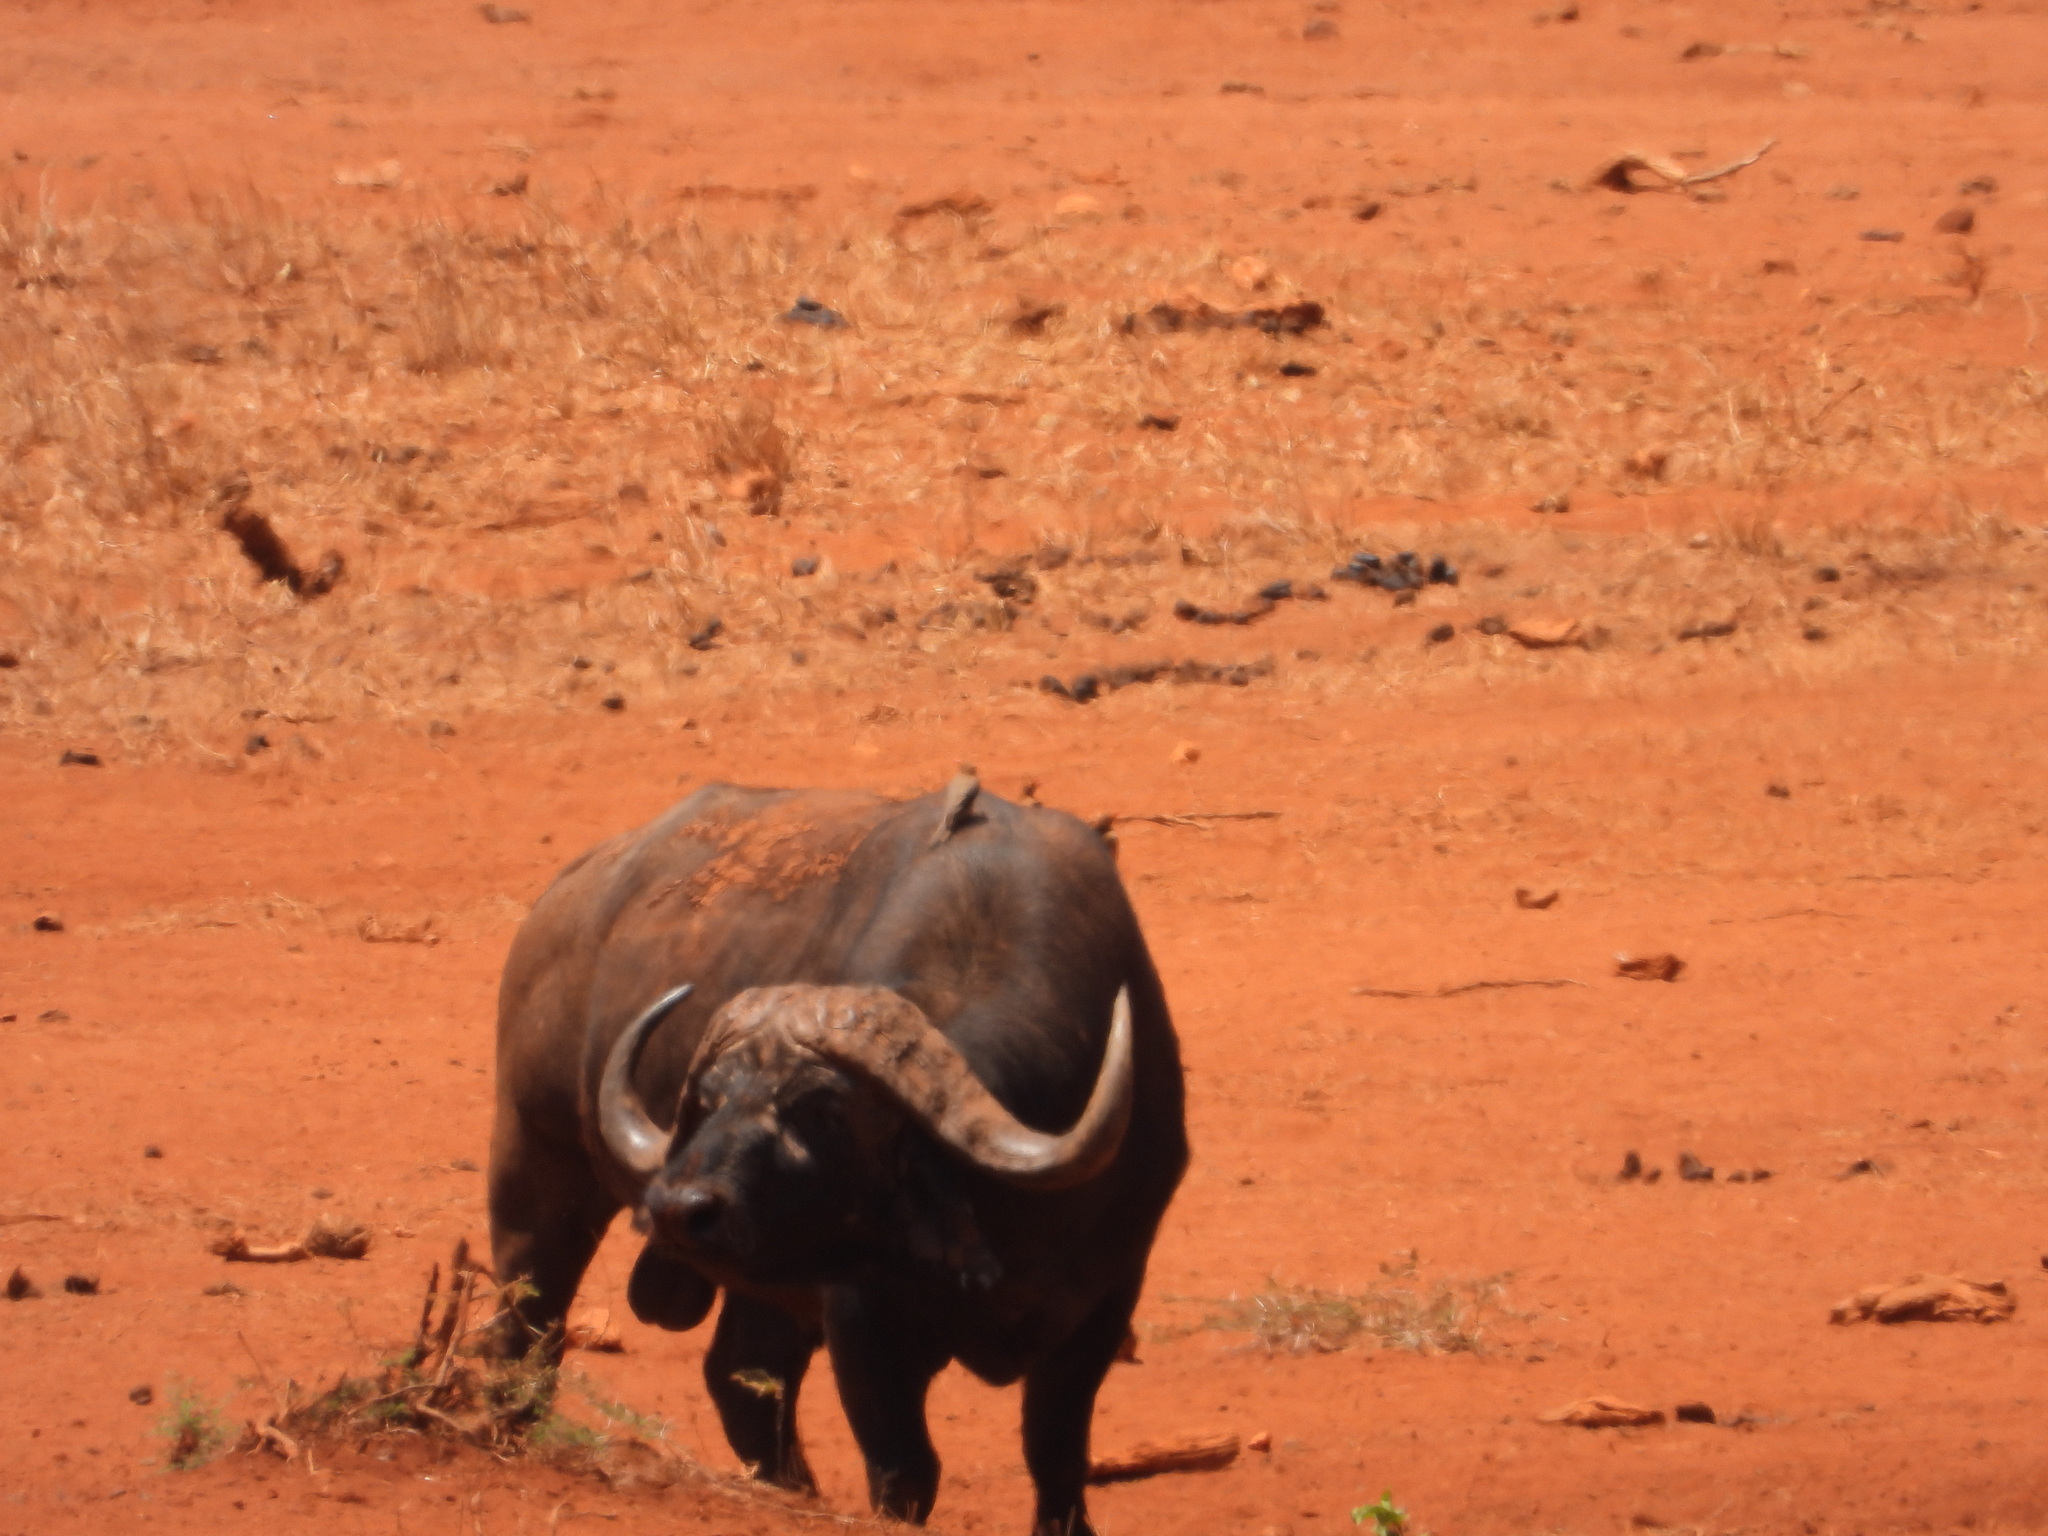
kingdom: Animalia
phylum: Chordata
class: Mammalia
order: Artiodactyla
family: Bovidae
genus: Syncerus
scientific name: Syncerus caffer
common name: African buffalo
